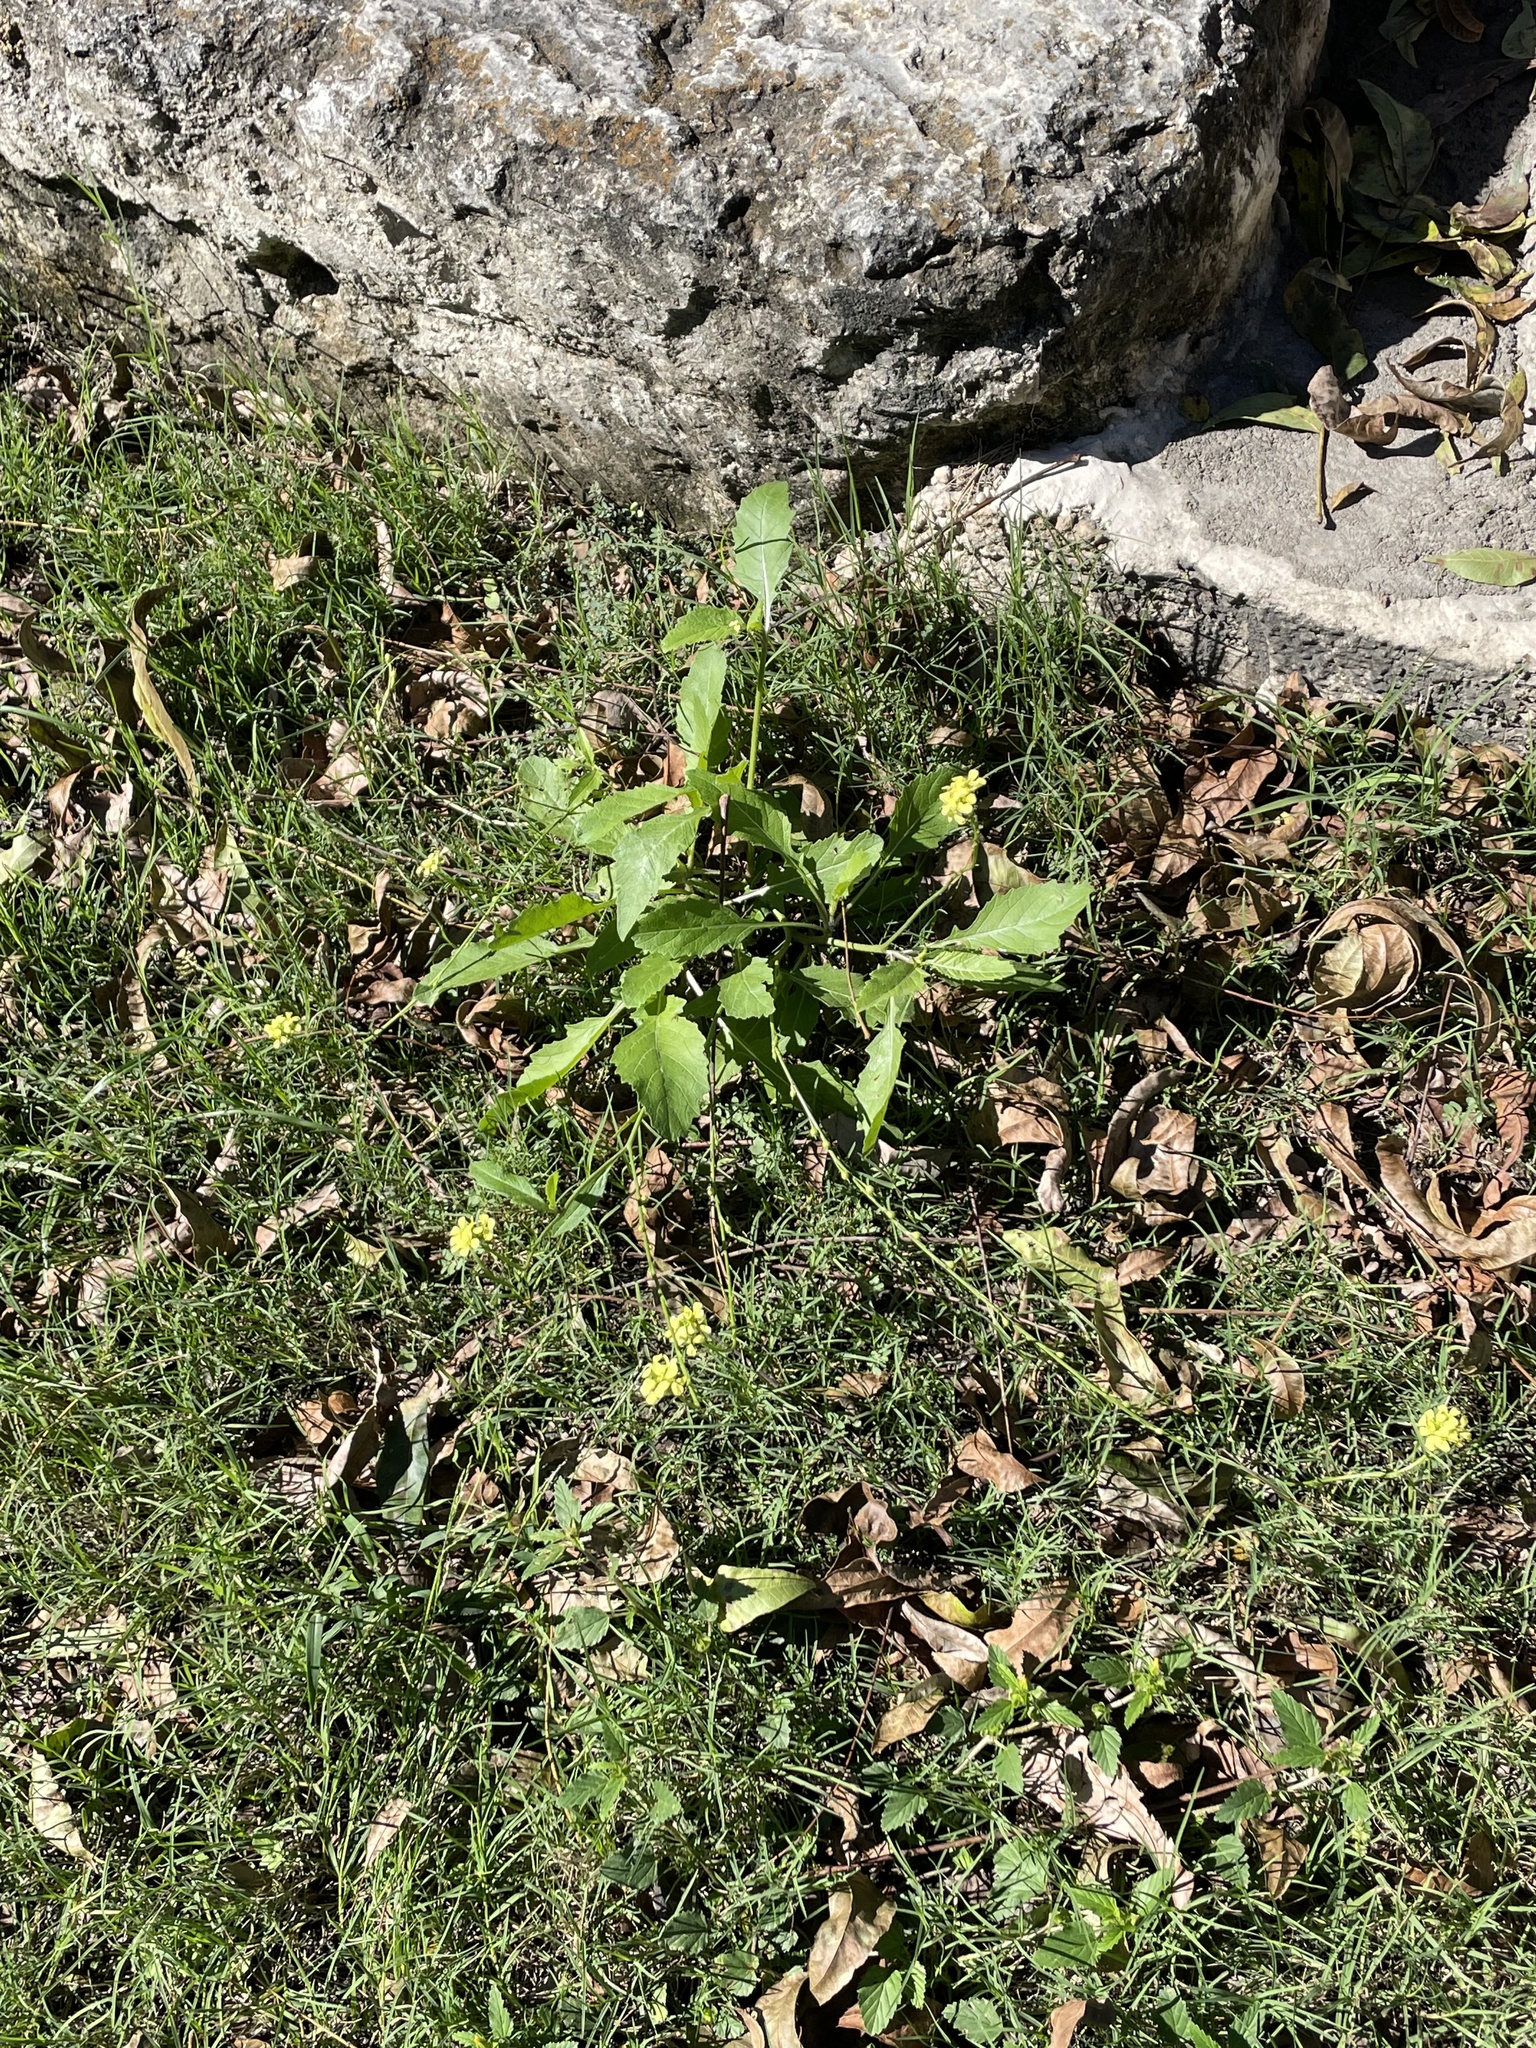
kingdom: Plantae
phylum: Tracheophyta
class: Magnoliopsida
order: Brassicales
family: Brassicaceae
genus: Rapistrum
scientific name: Rapistrum rugosum
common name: Annual bastardcabbage
